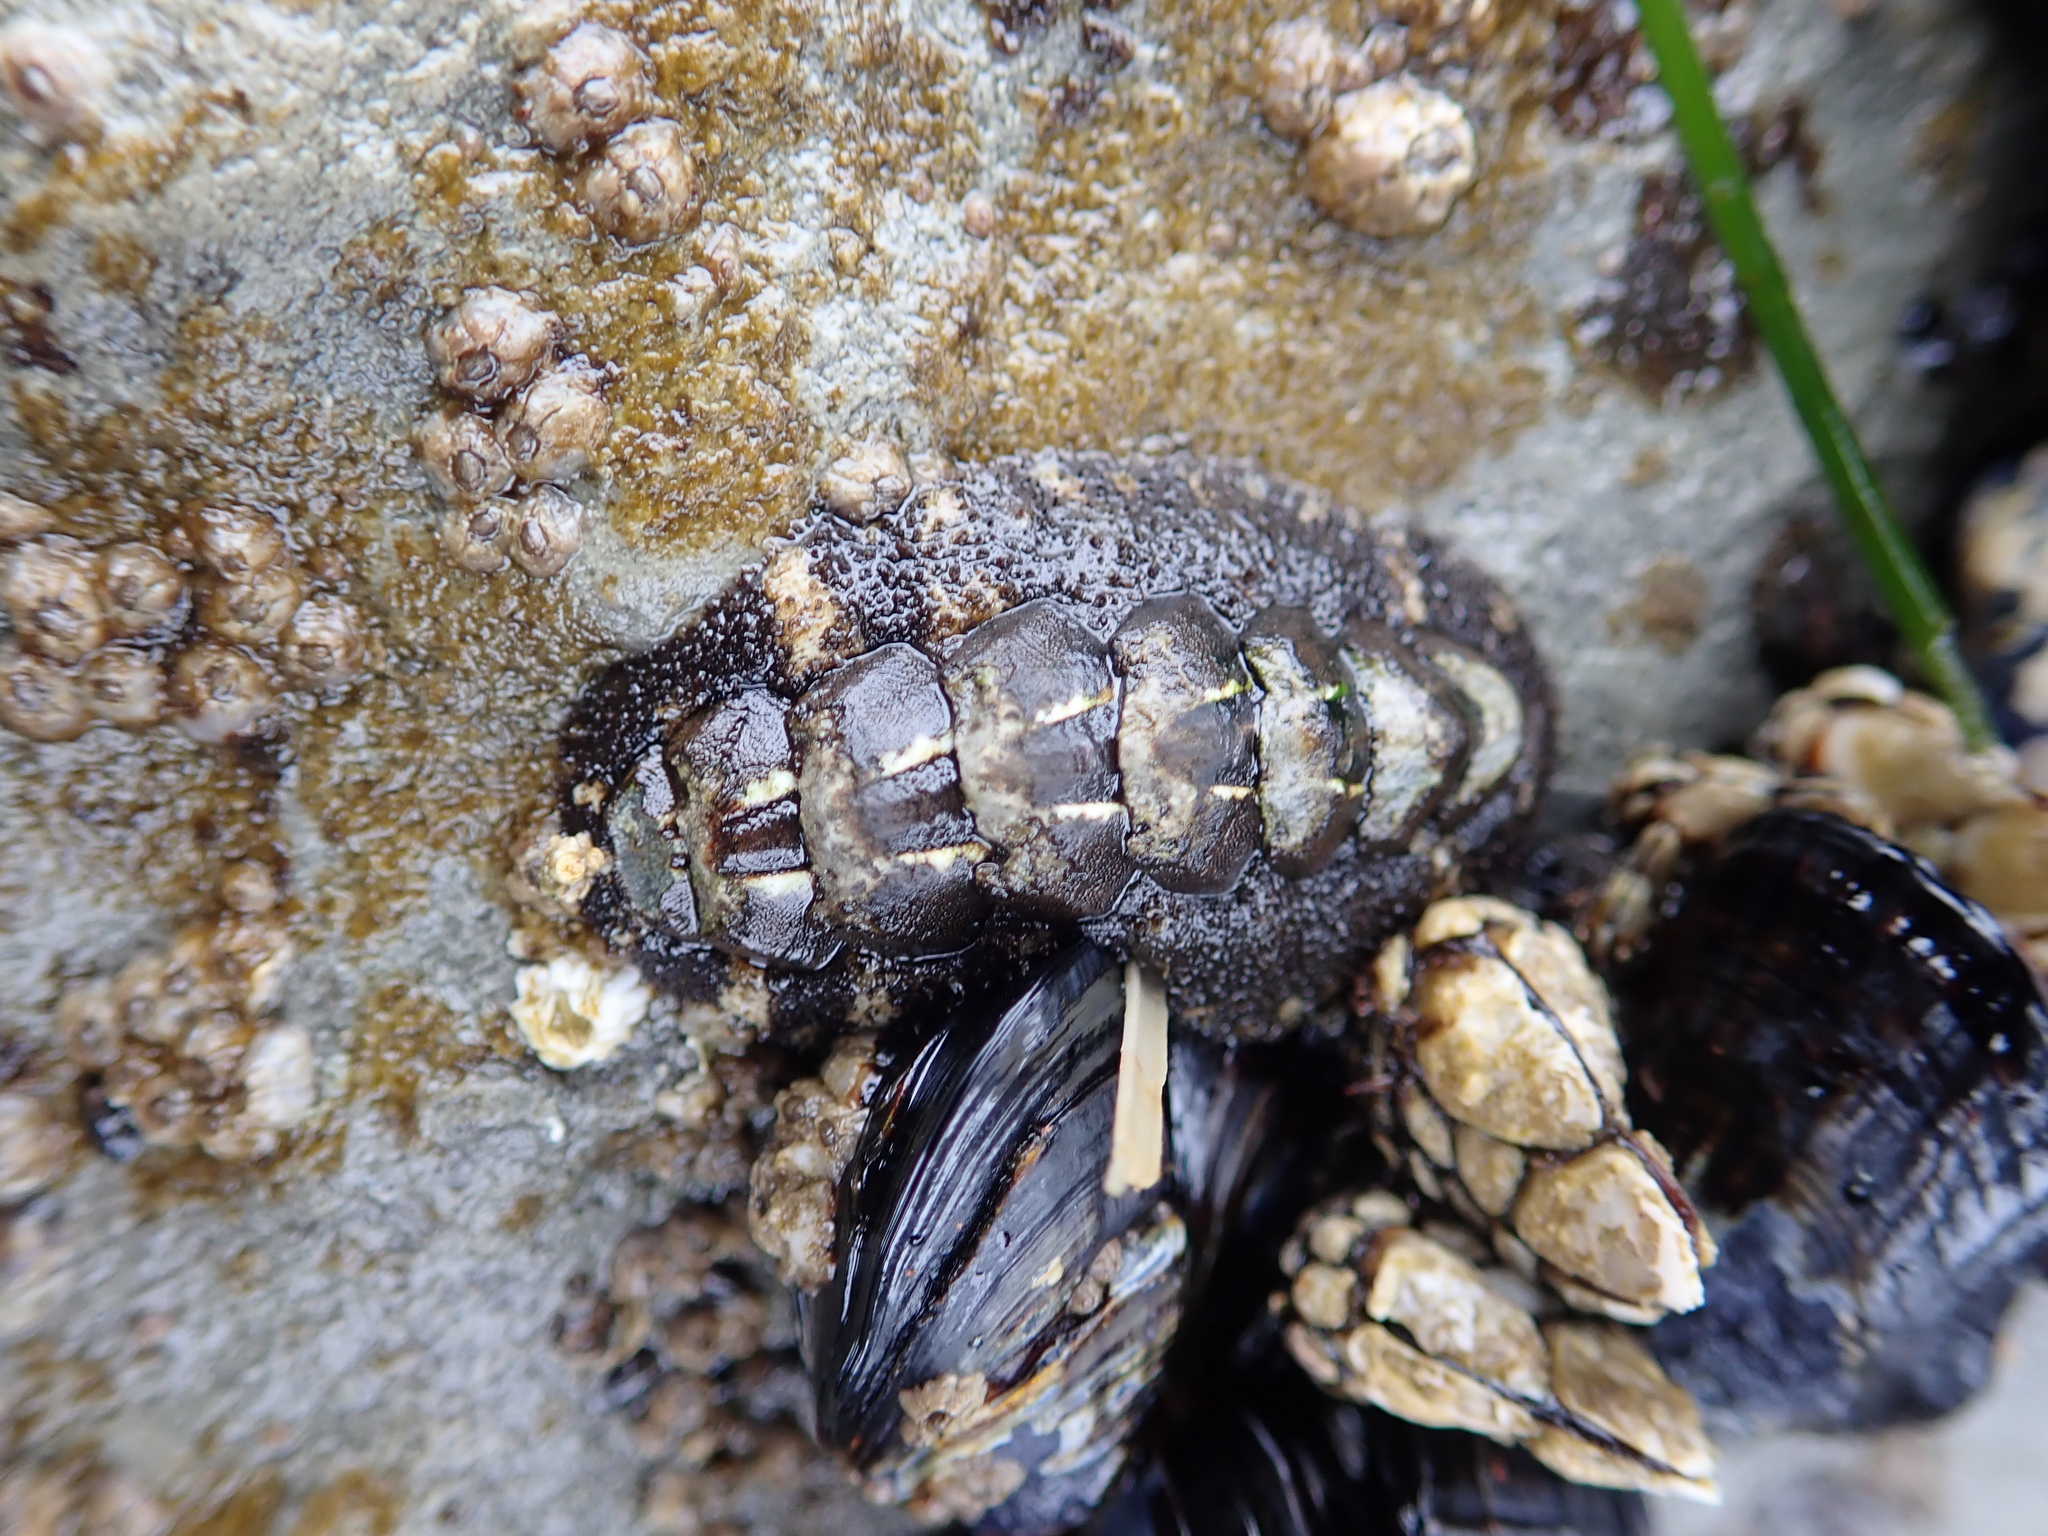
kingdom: Animalia
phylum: Mollusca
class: Polyplacophora
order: Chitonida
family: Tonicellidae
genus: Nuttallina
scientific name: Nuttallina californica
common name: California nuttall chiton
